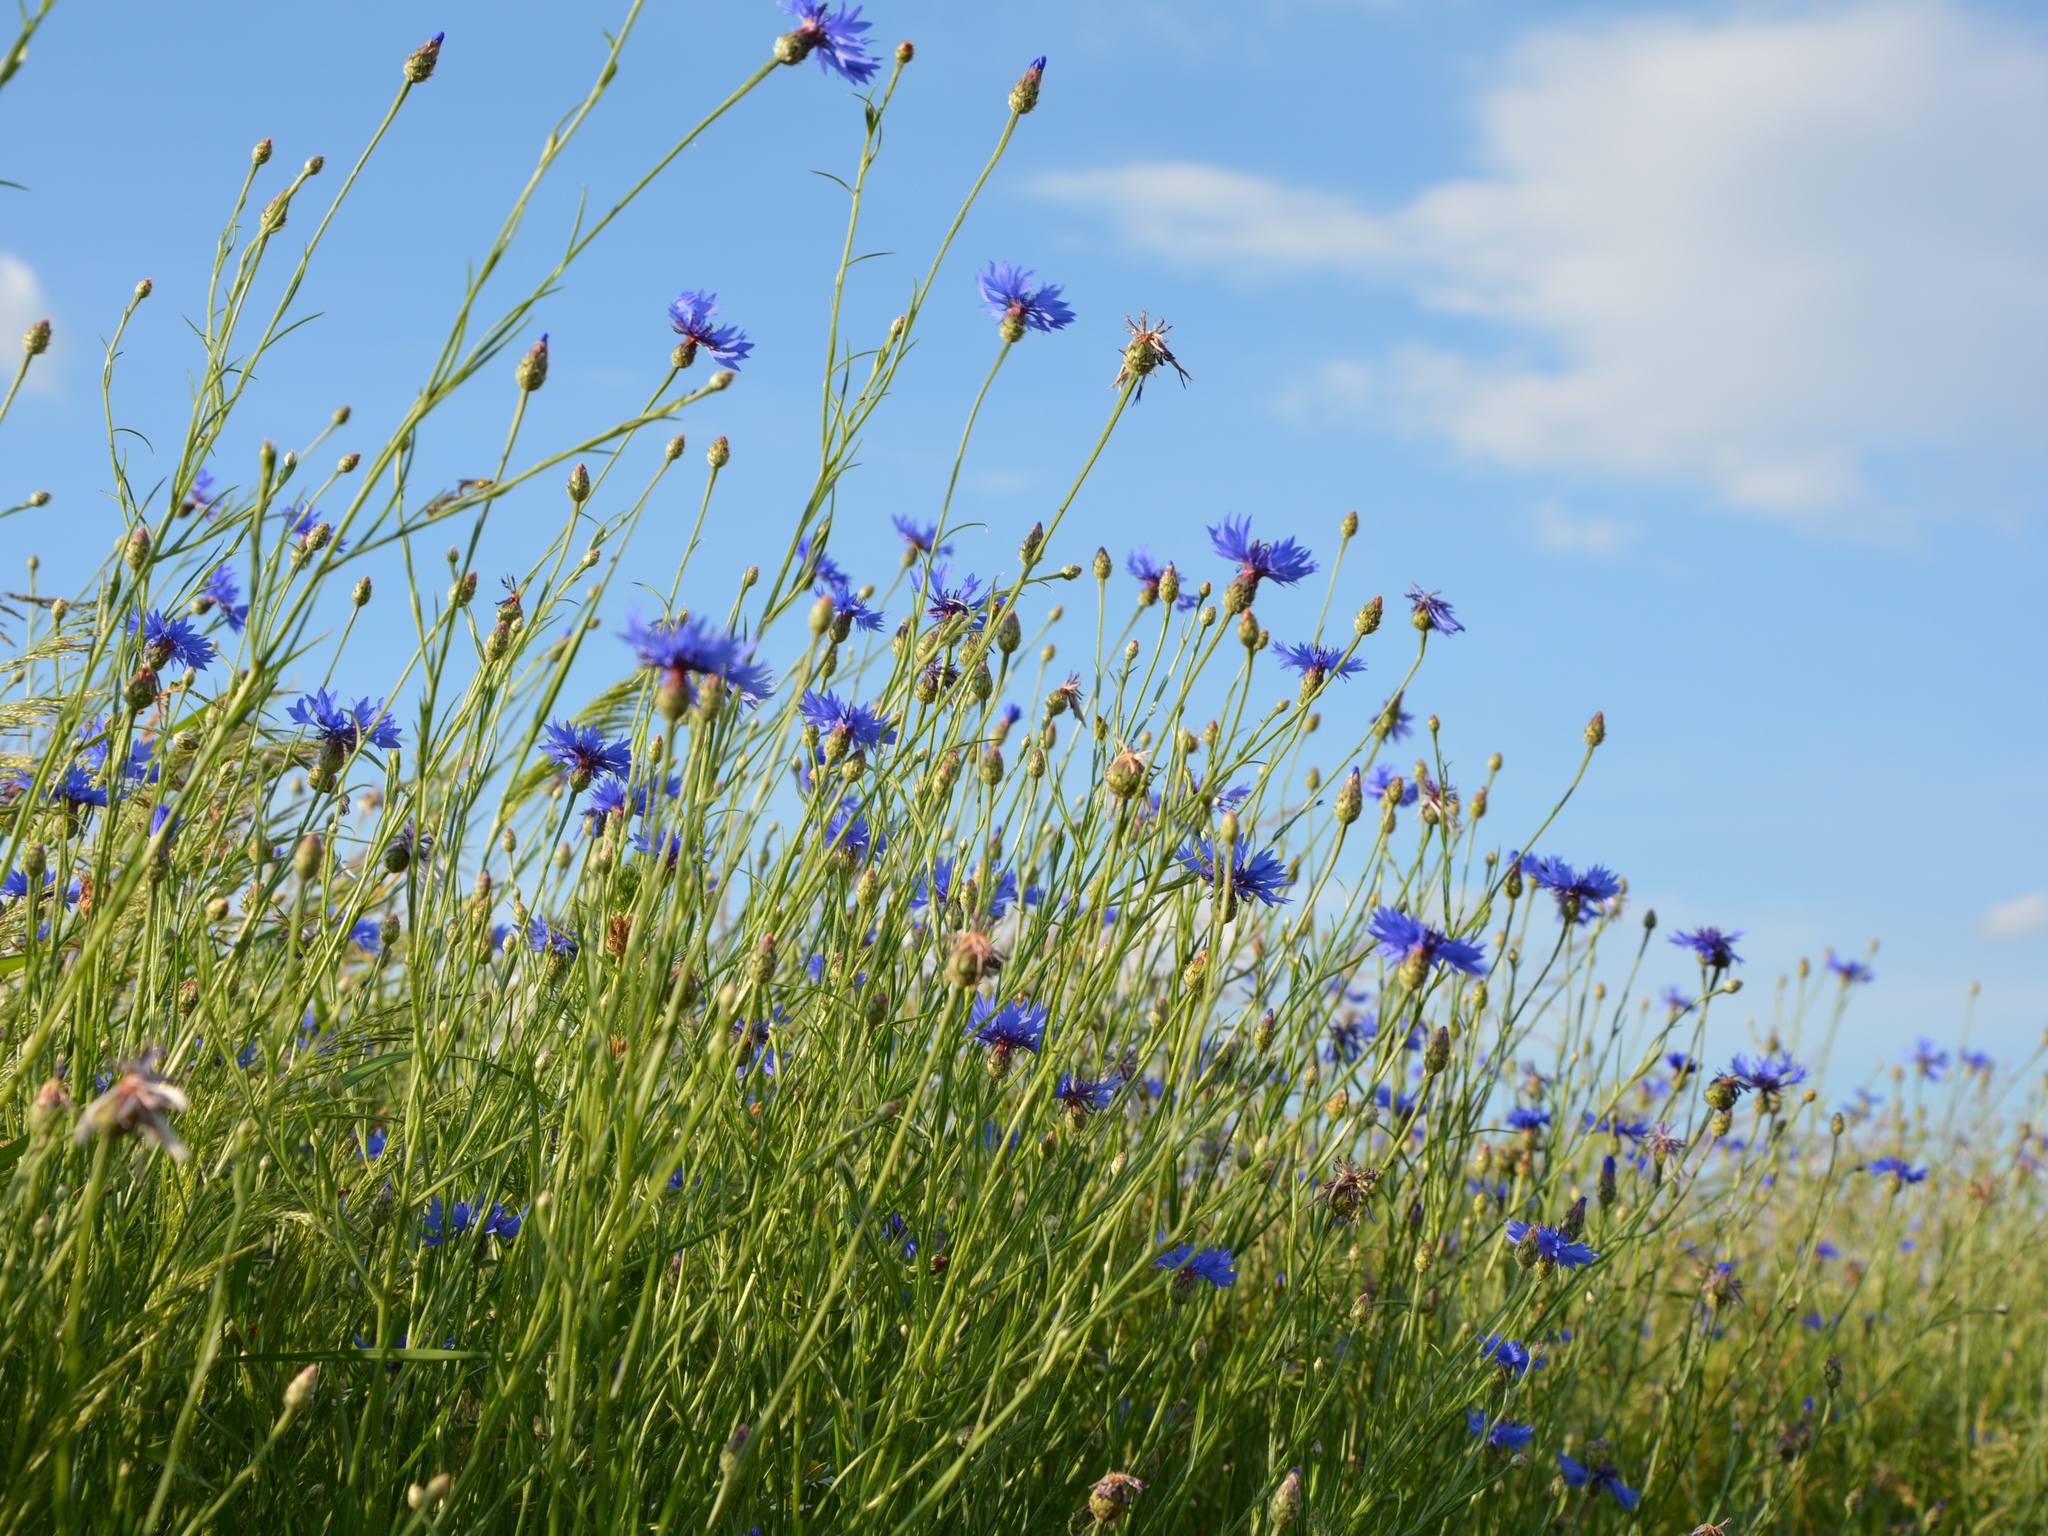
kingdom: Plantae
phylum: Tracheophyta
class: Magnoliopsida
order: Asterales
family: Asteraceae
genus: Centaurea
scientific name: Centaurea cyanus
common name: Cornflower
